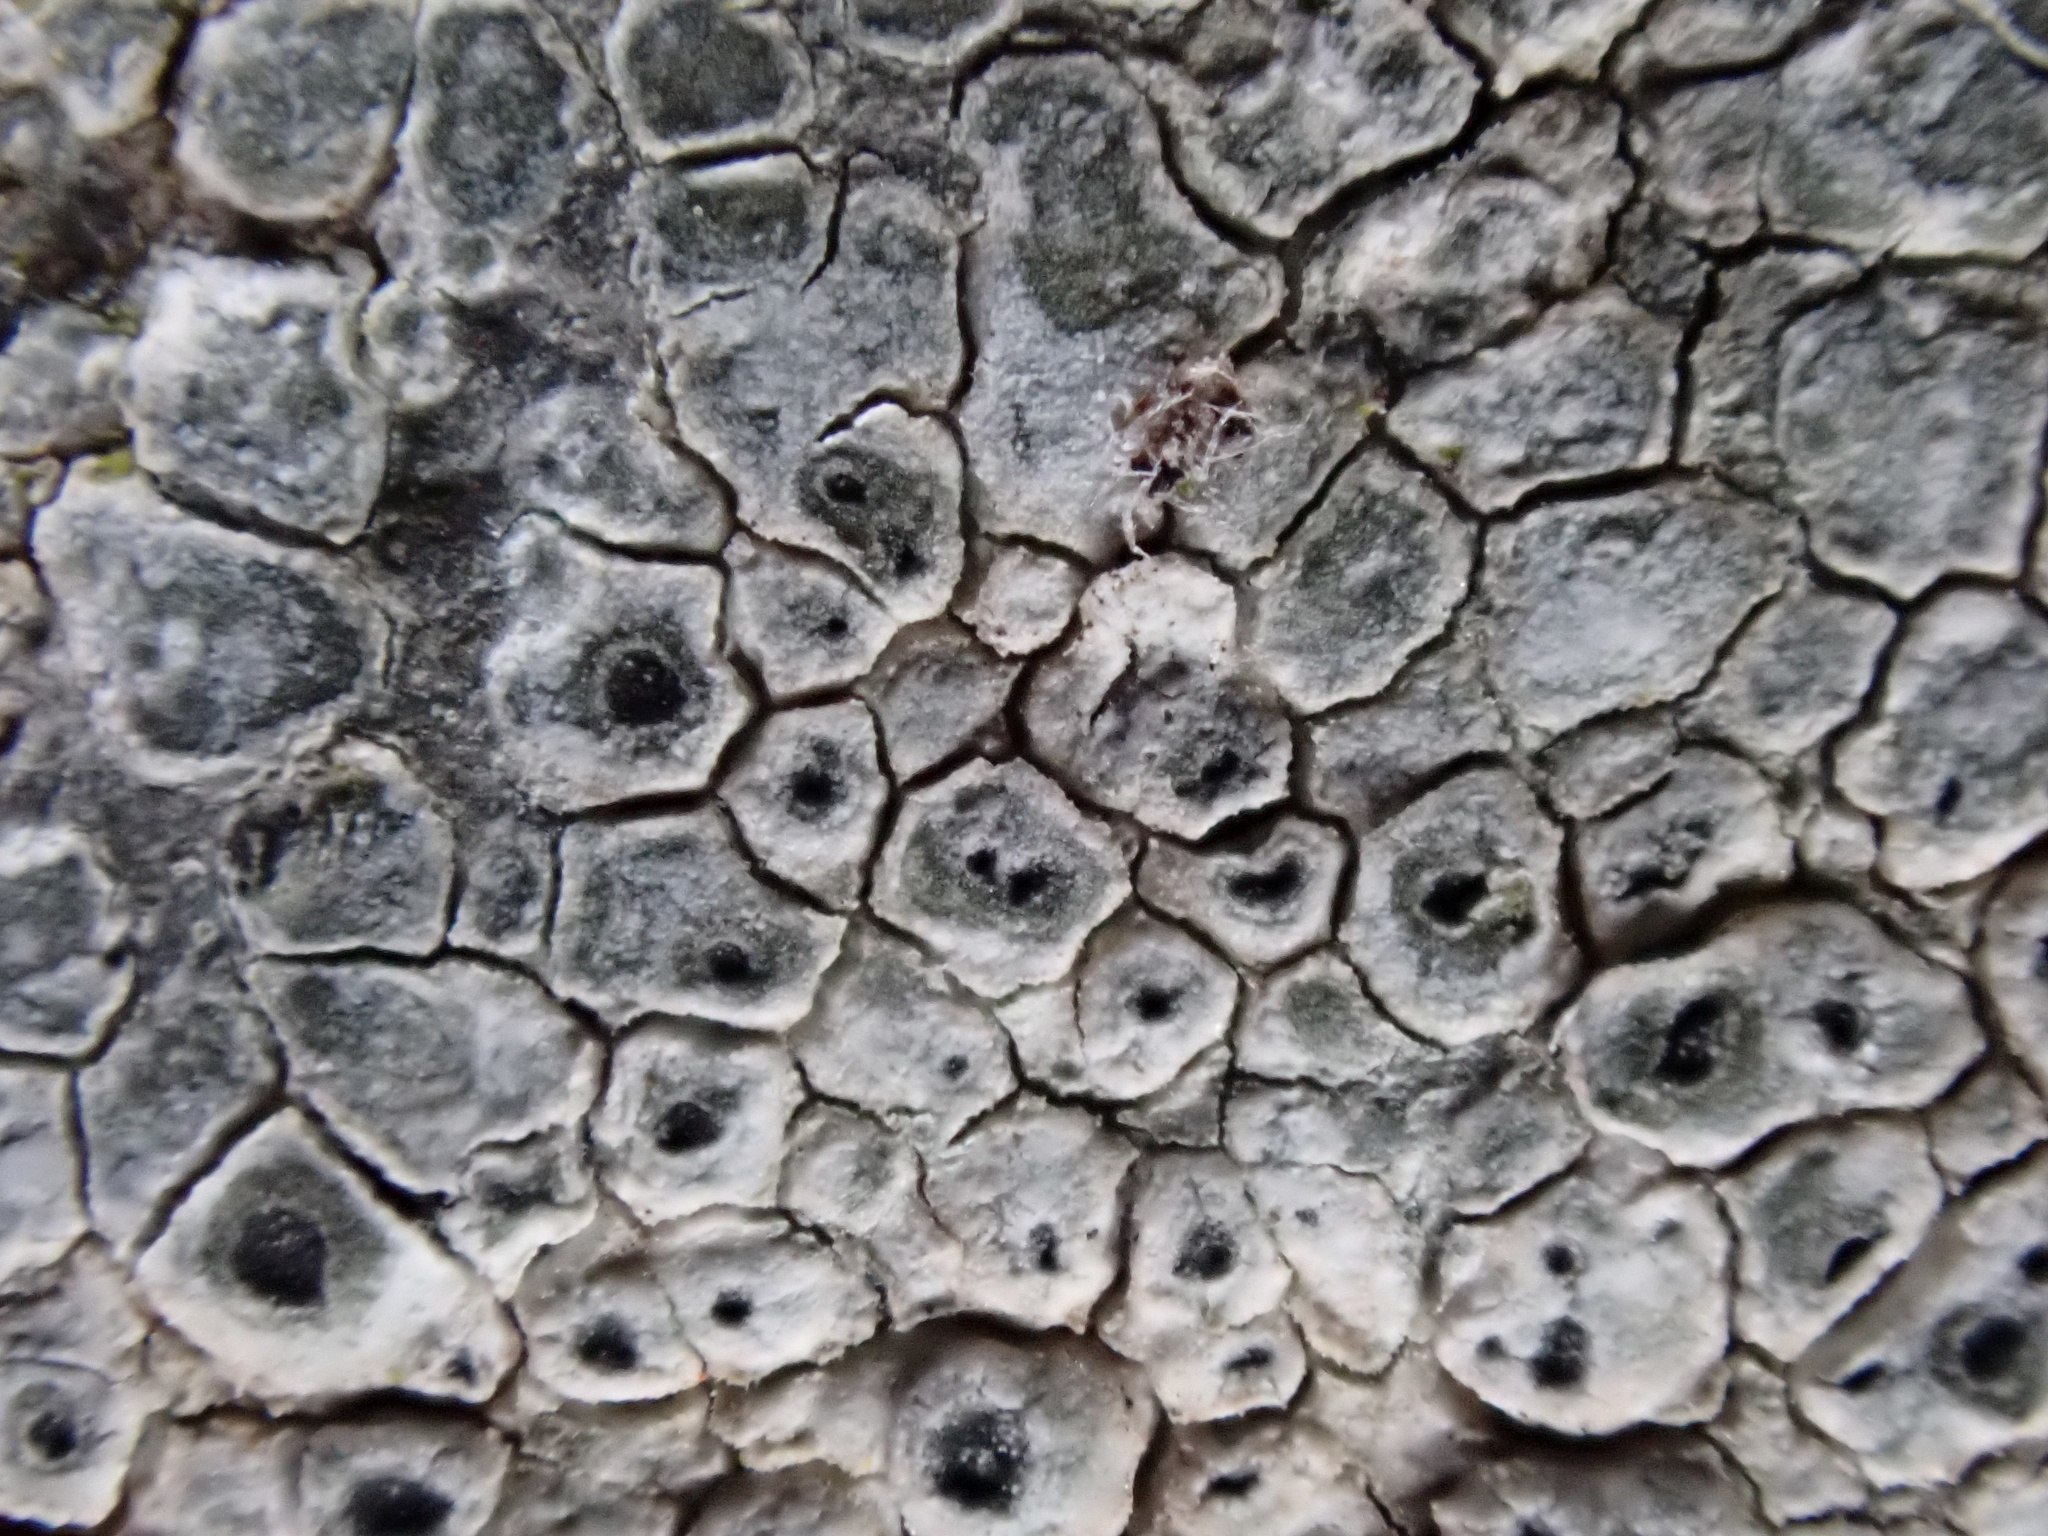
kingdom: Fungi
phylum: Ascomycota
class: Lecanoromycetes
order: Pertusariales
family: Megasporaceae
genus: Circinaria
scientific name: Circinaria contorta
